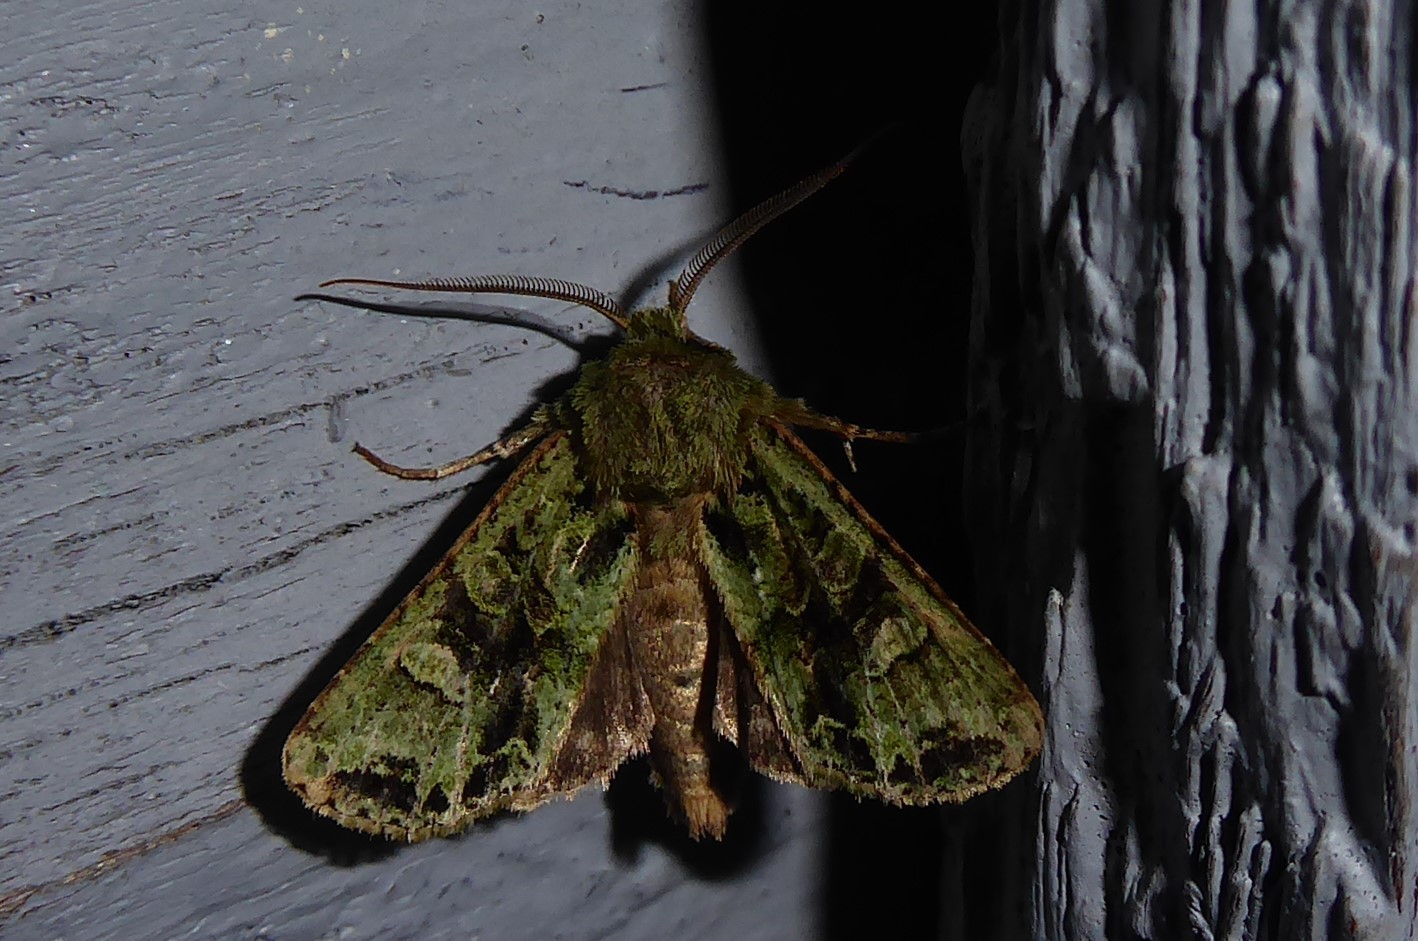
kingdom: Animalia
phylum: Arthropoda
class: Insecta
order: Lepidoptera
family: Noctuidae
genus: Ichneutica
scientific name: Ichneutica
